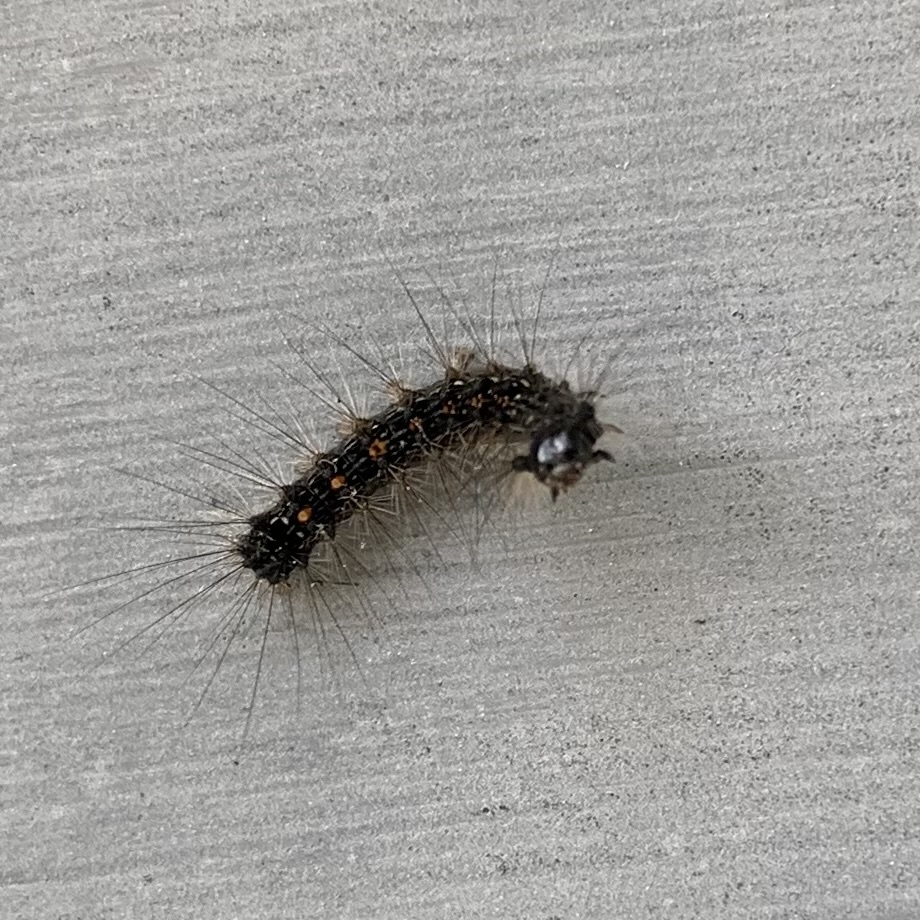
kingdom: Animalia
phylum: Arthropoda
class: Insecta
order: Lepidoptera
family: Erebidae
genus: Lymantria
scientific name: Lymantria dispar
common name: Gypsy moth
